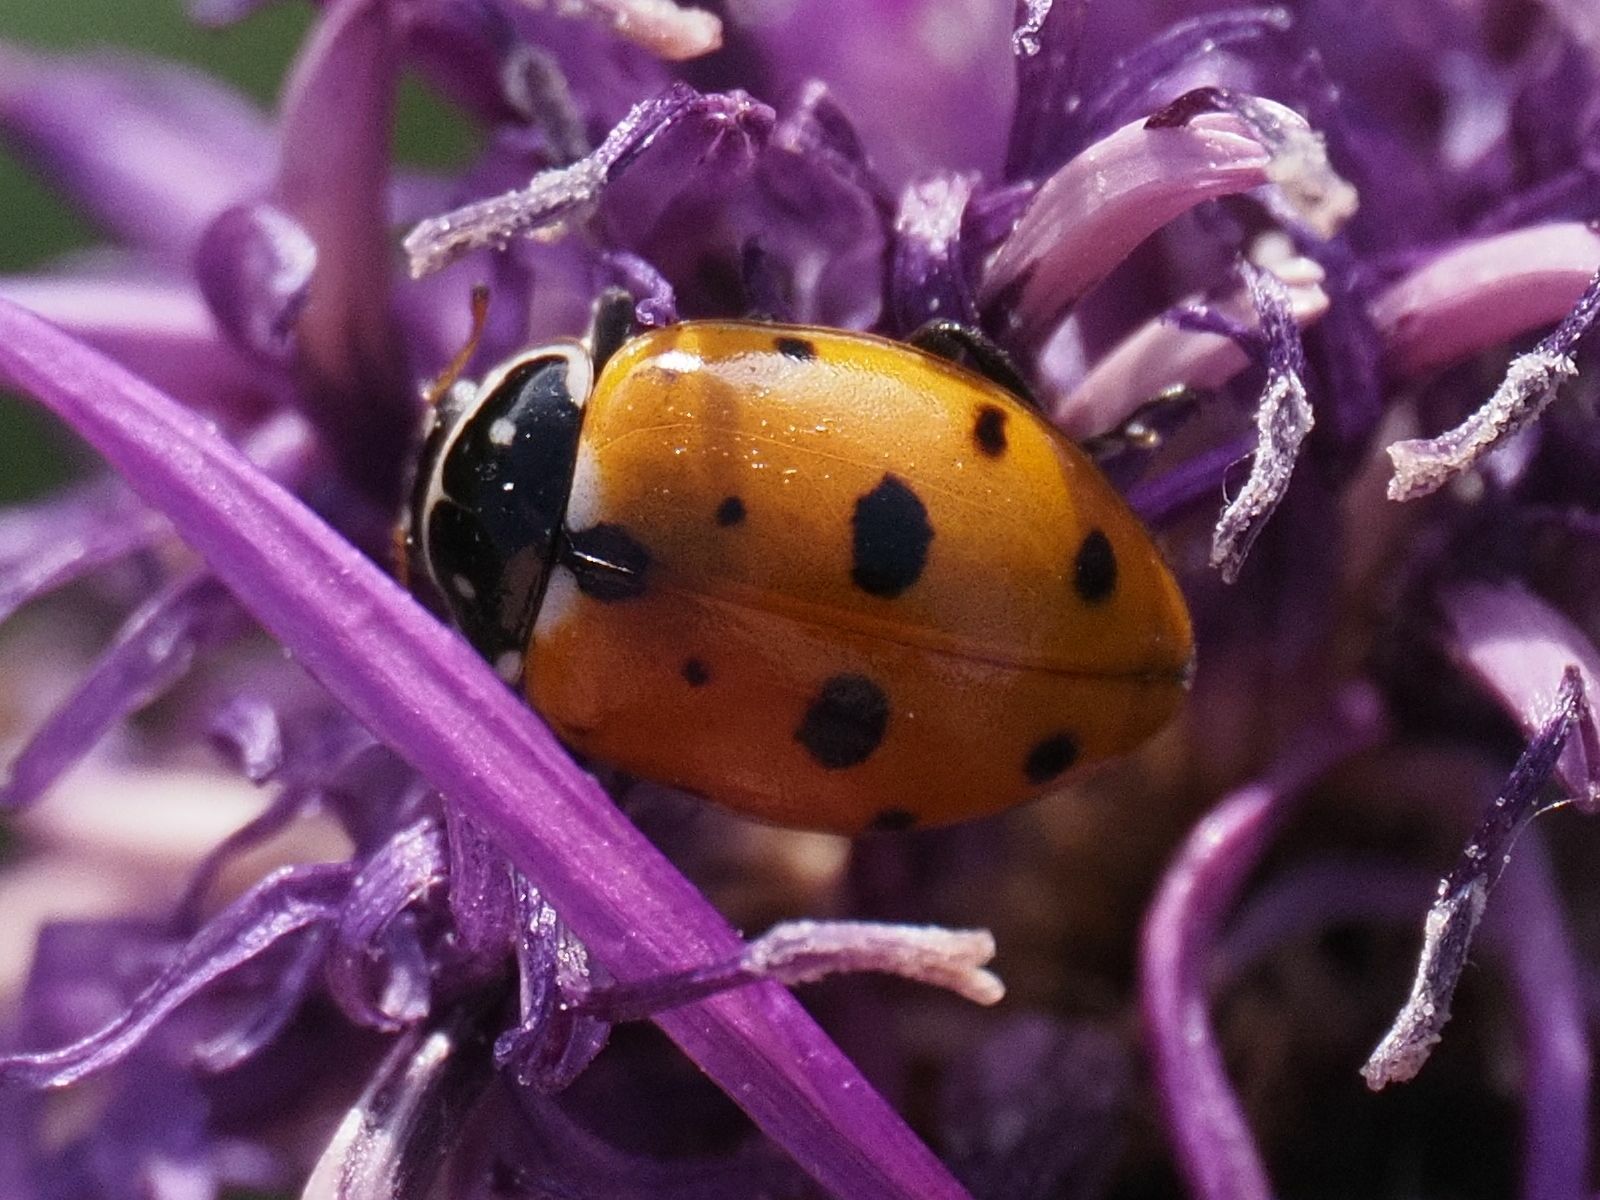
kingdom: Animalia
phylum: Arthropoda
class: Insecta
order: Coleoptera
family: Coccinellidae
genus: Hippodamia
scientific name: Hippodamia variegata
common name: Ladybird beetle
